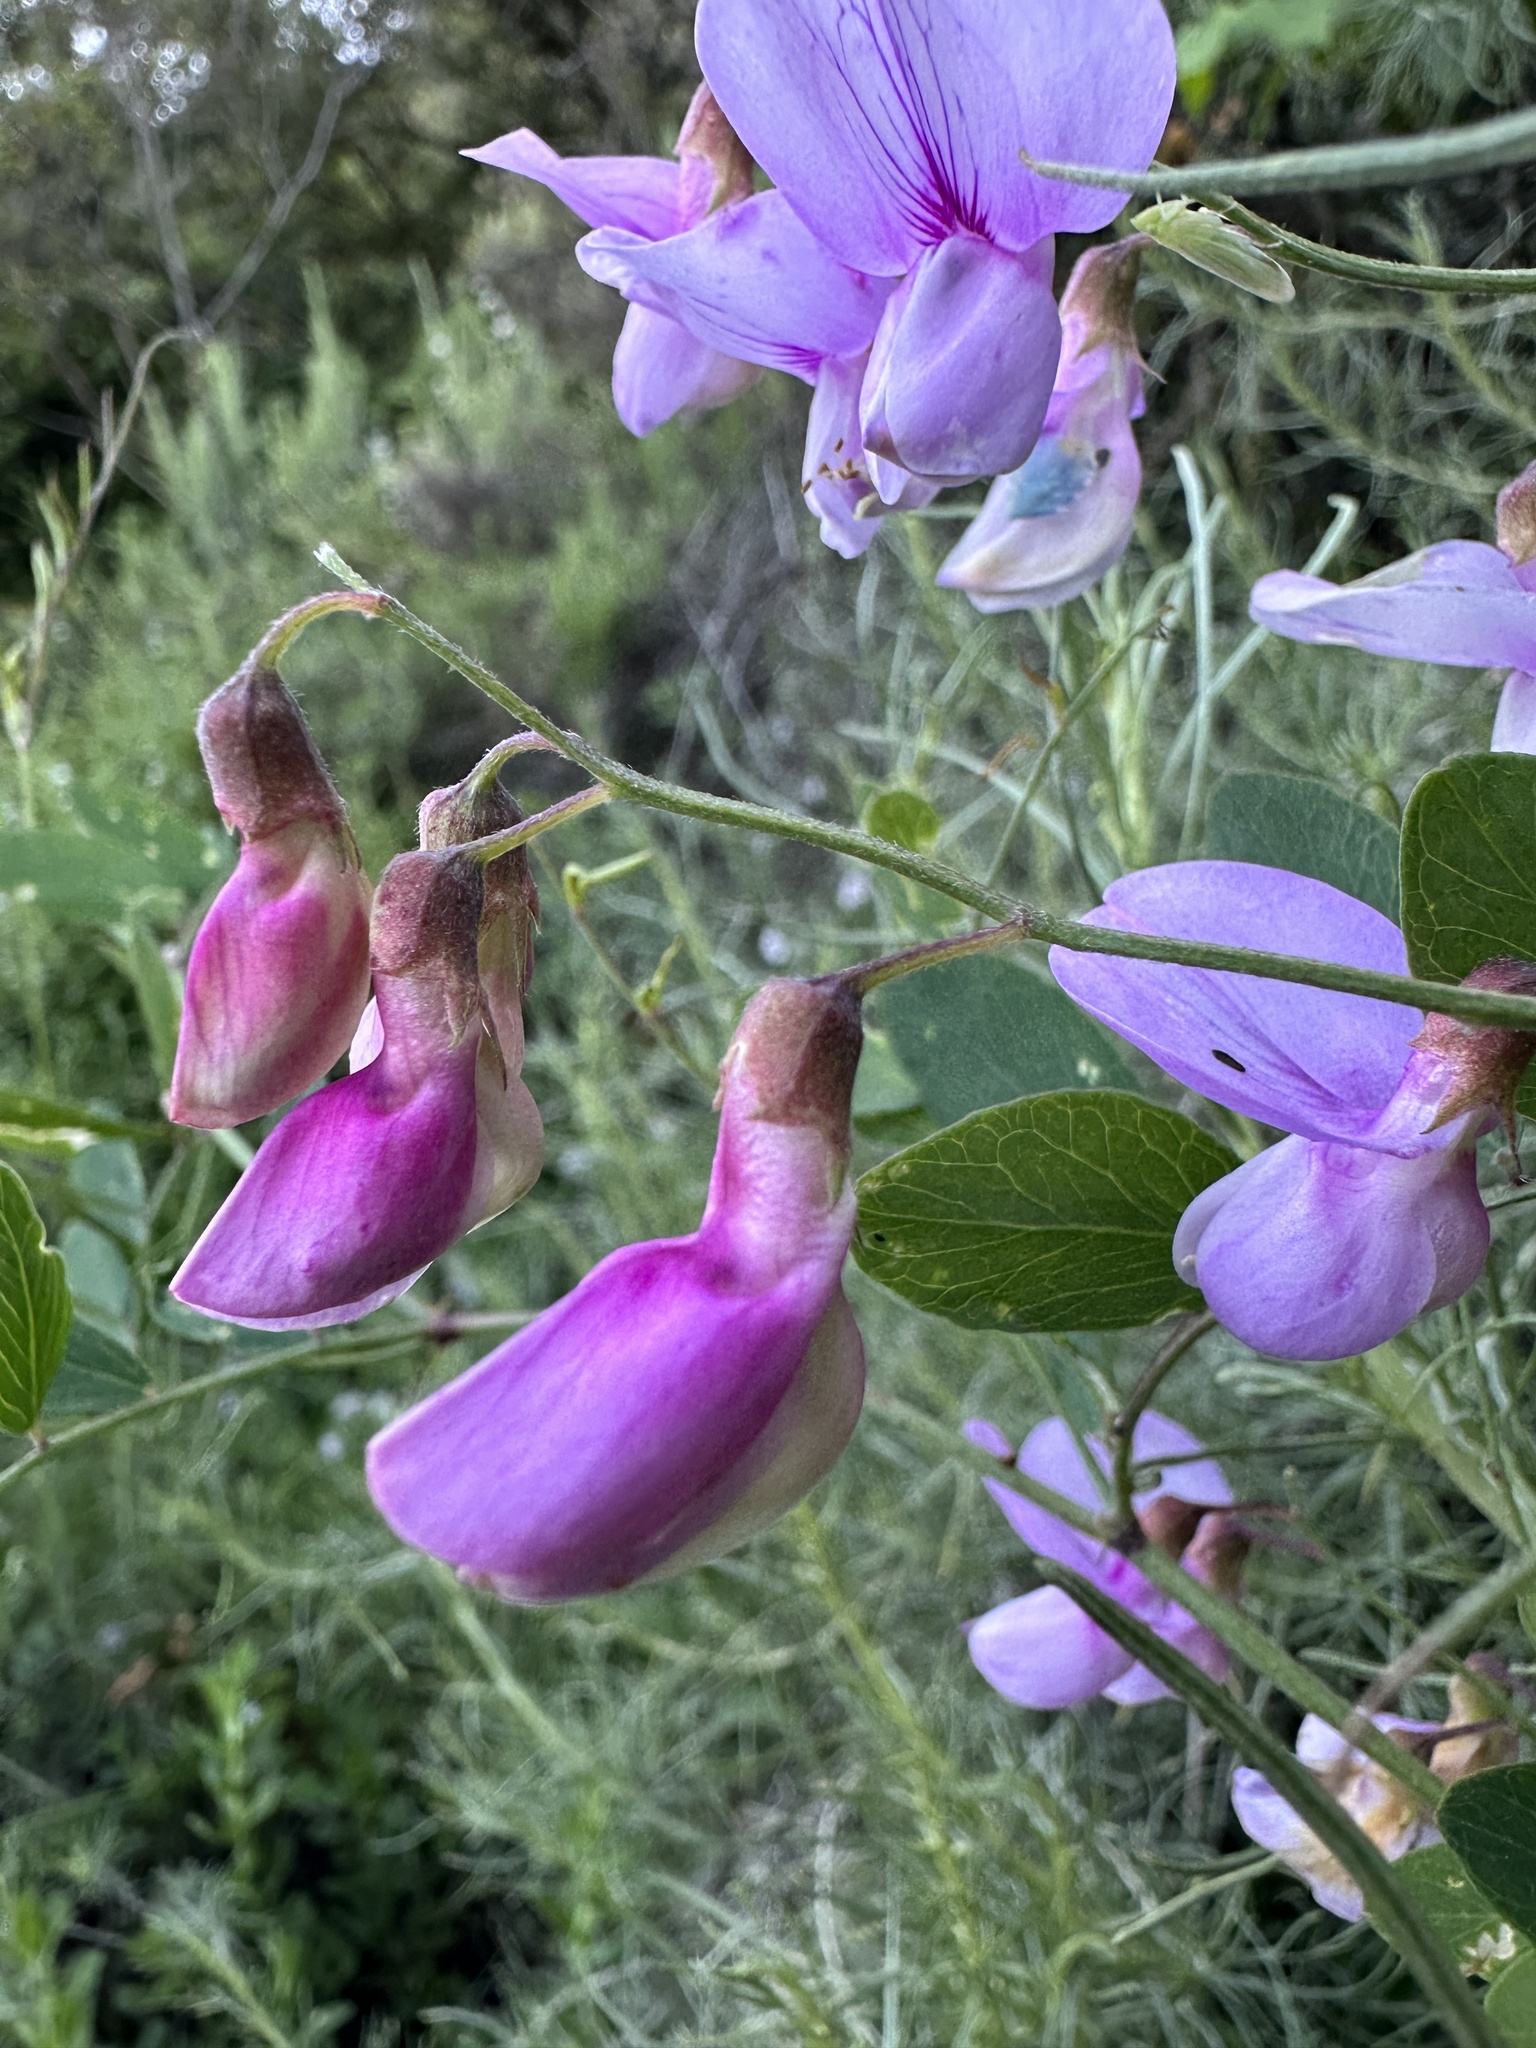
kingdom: Plantae
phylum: Tracheophyta
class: Magnoliopsida
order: Fabales
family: Fabaceae
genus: Lathyrus
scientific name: Lathyrus vestitus
